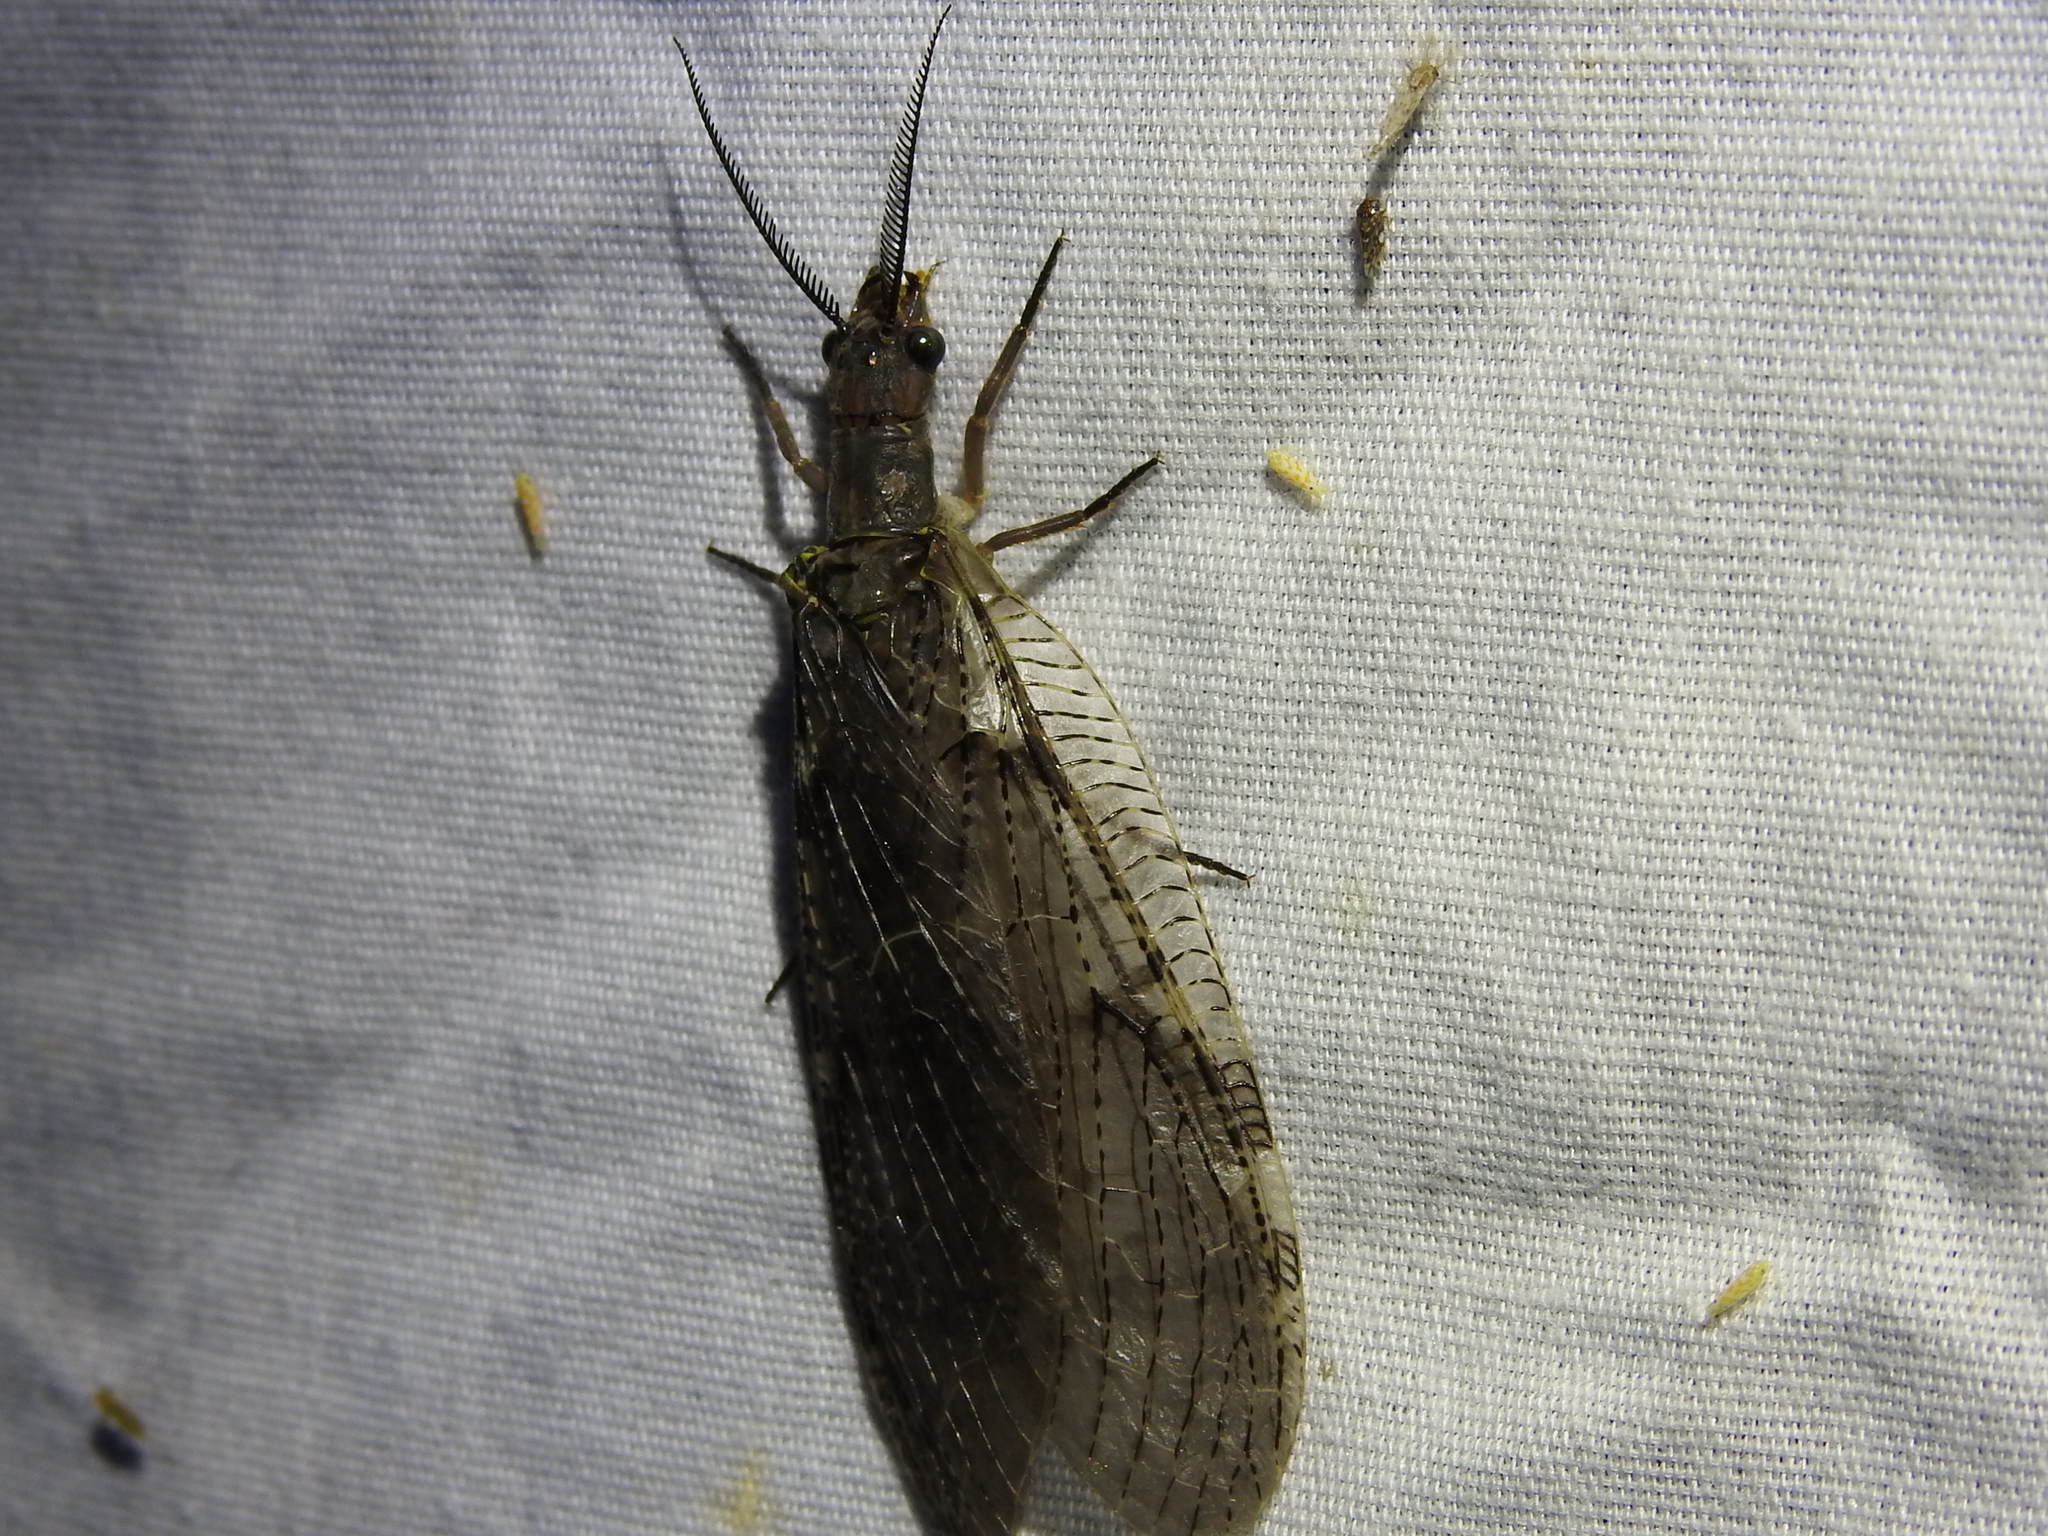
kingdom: Animalia
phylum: Arthropoda
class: Insecta
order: Megaloptera
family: Corydalidae
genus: Chauliodes
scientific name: Chauliodes pectinicornis
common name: Summer fishfly
